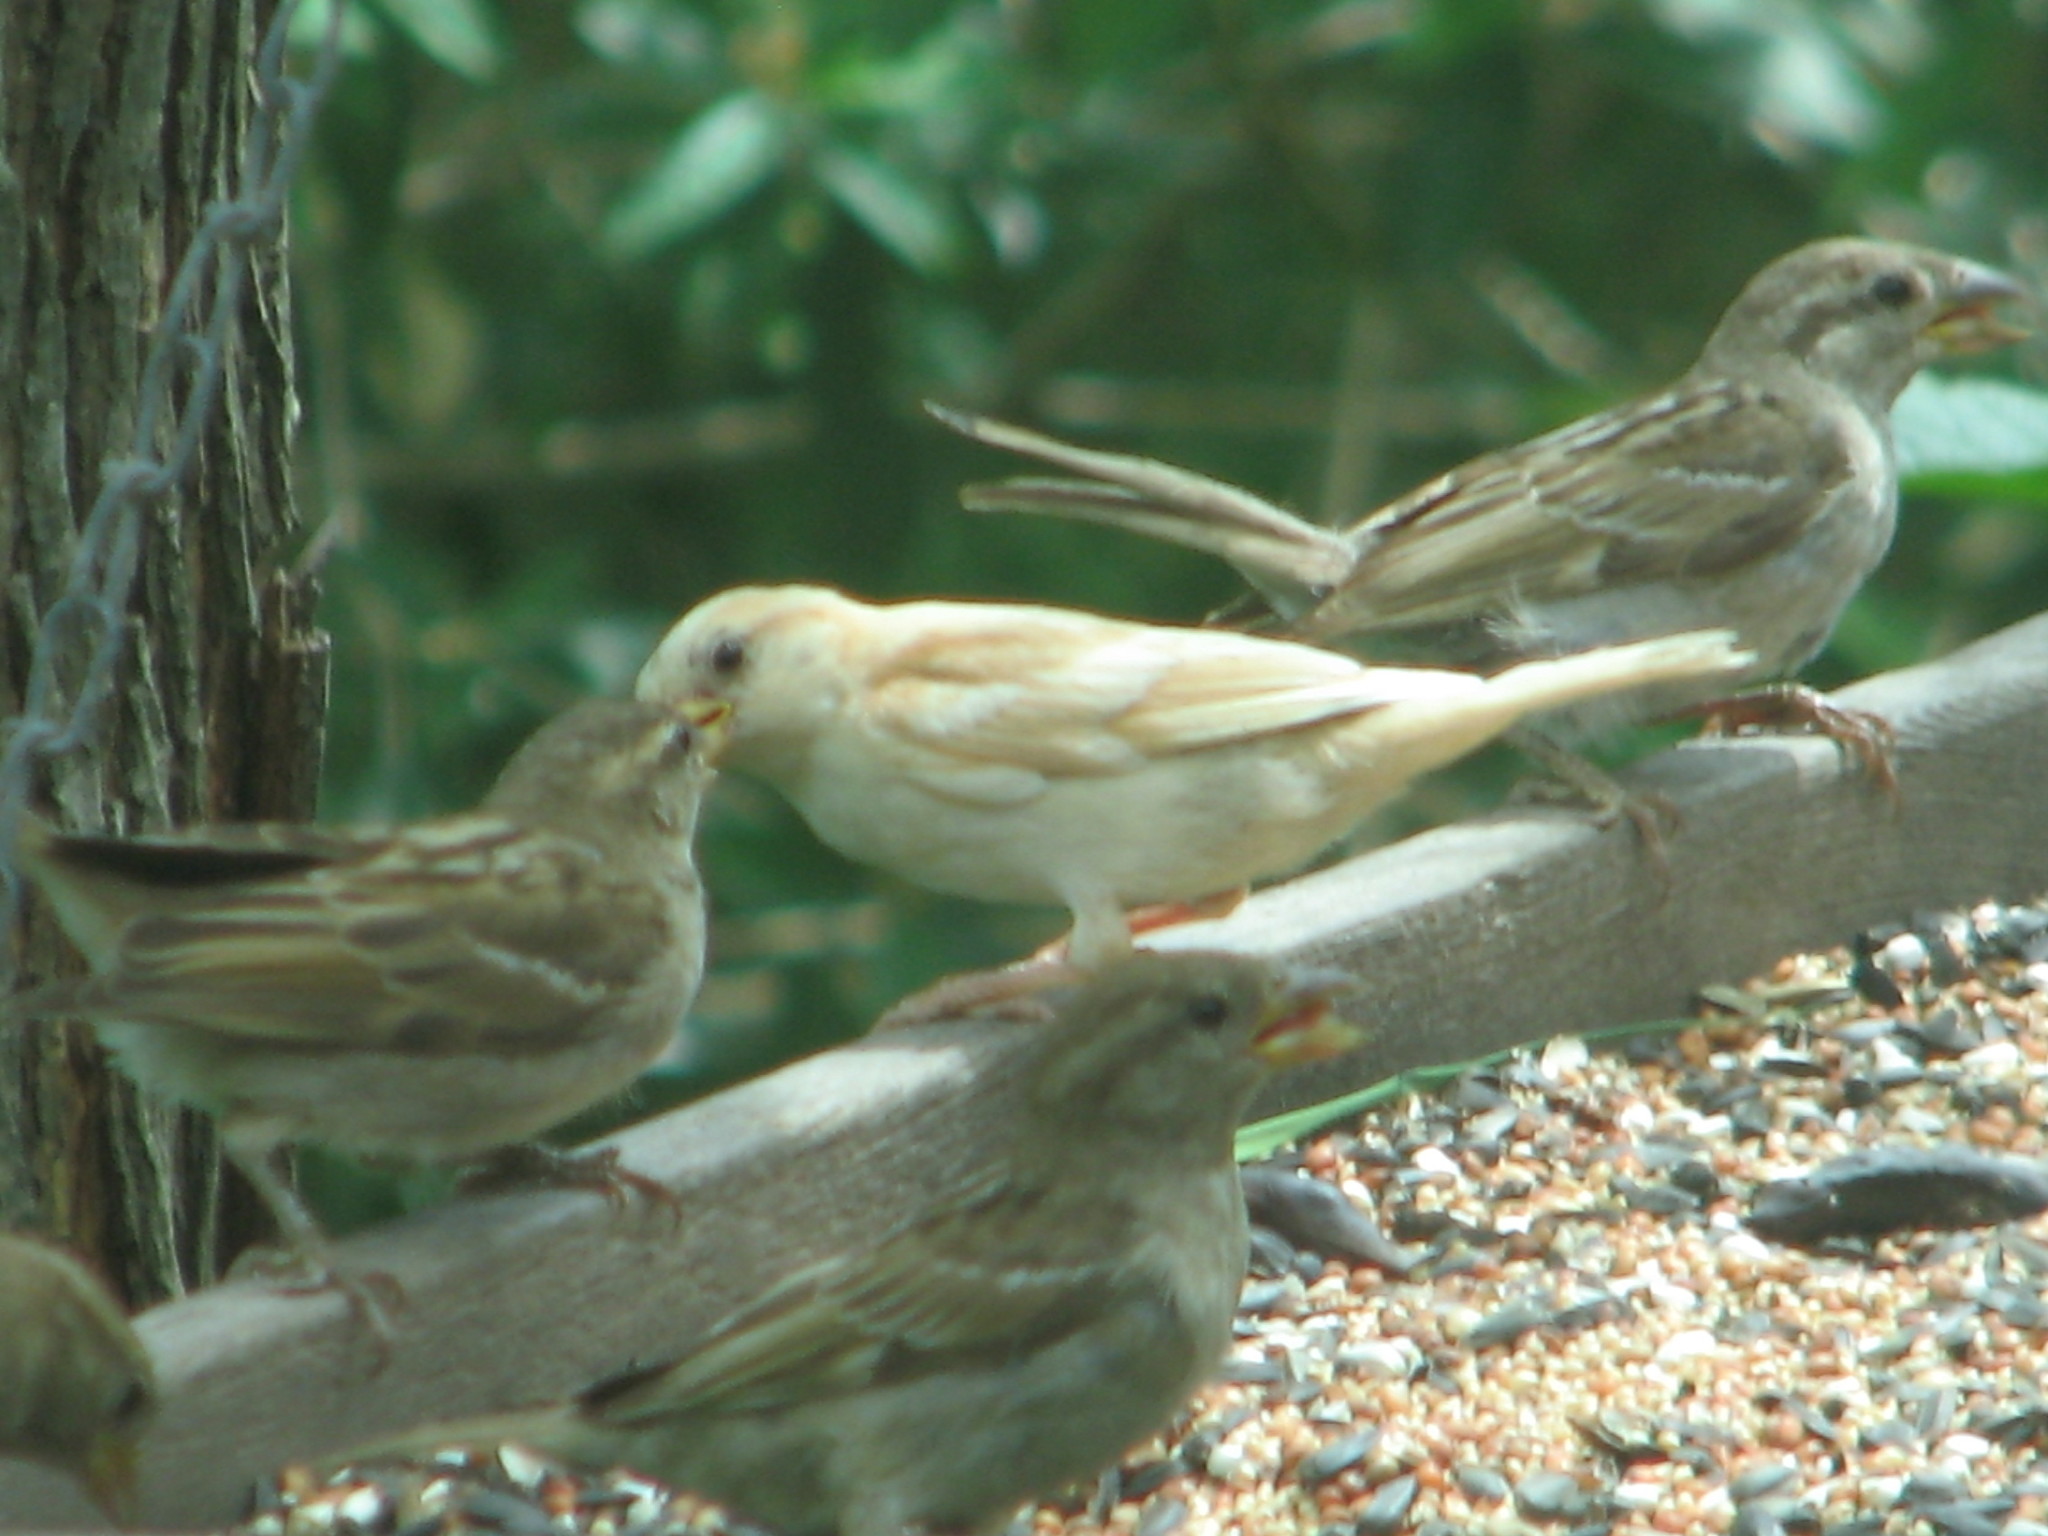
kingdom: Animalia
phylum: Chordata
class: Aves
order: Passeriformes
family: Passeridae
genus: Passer
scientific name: Passer domesticus
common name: House sparrow
